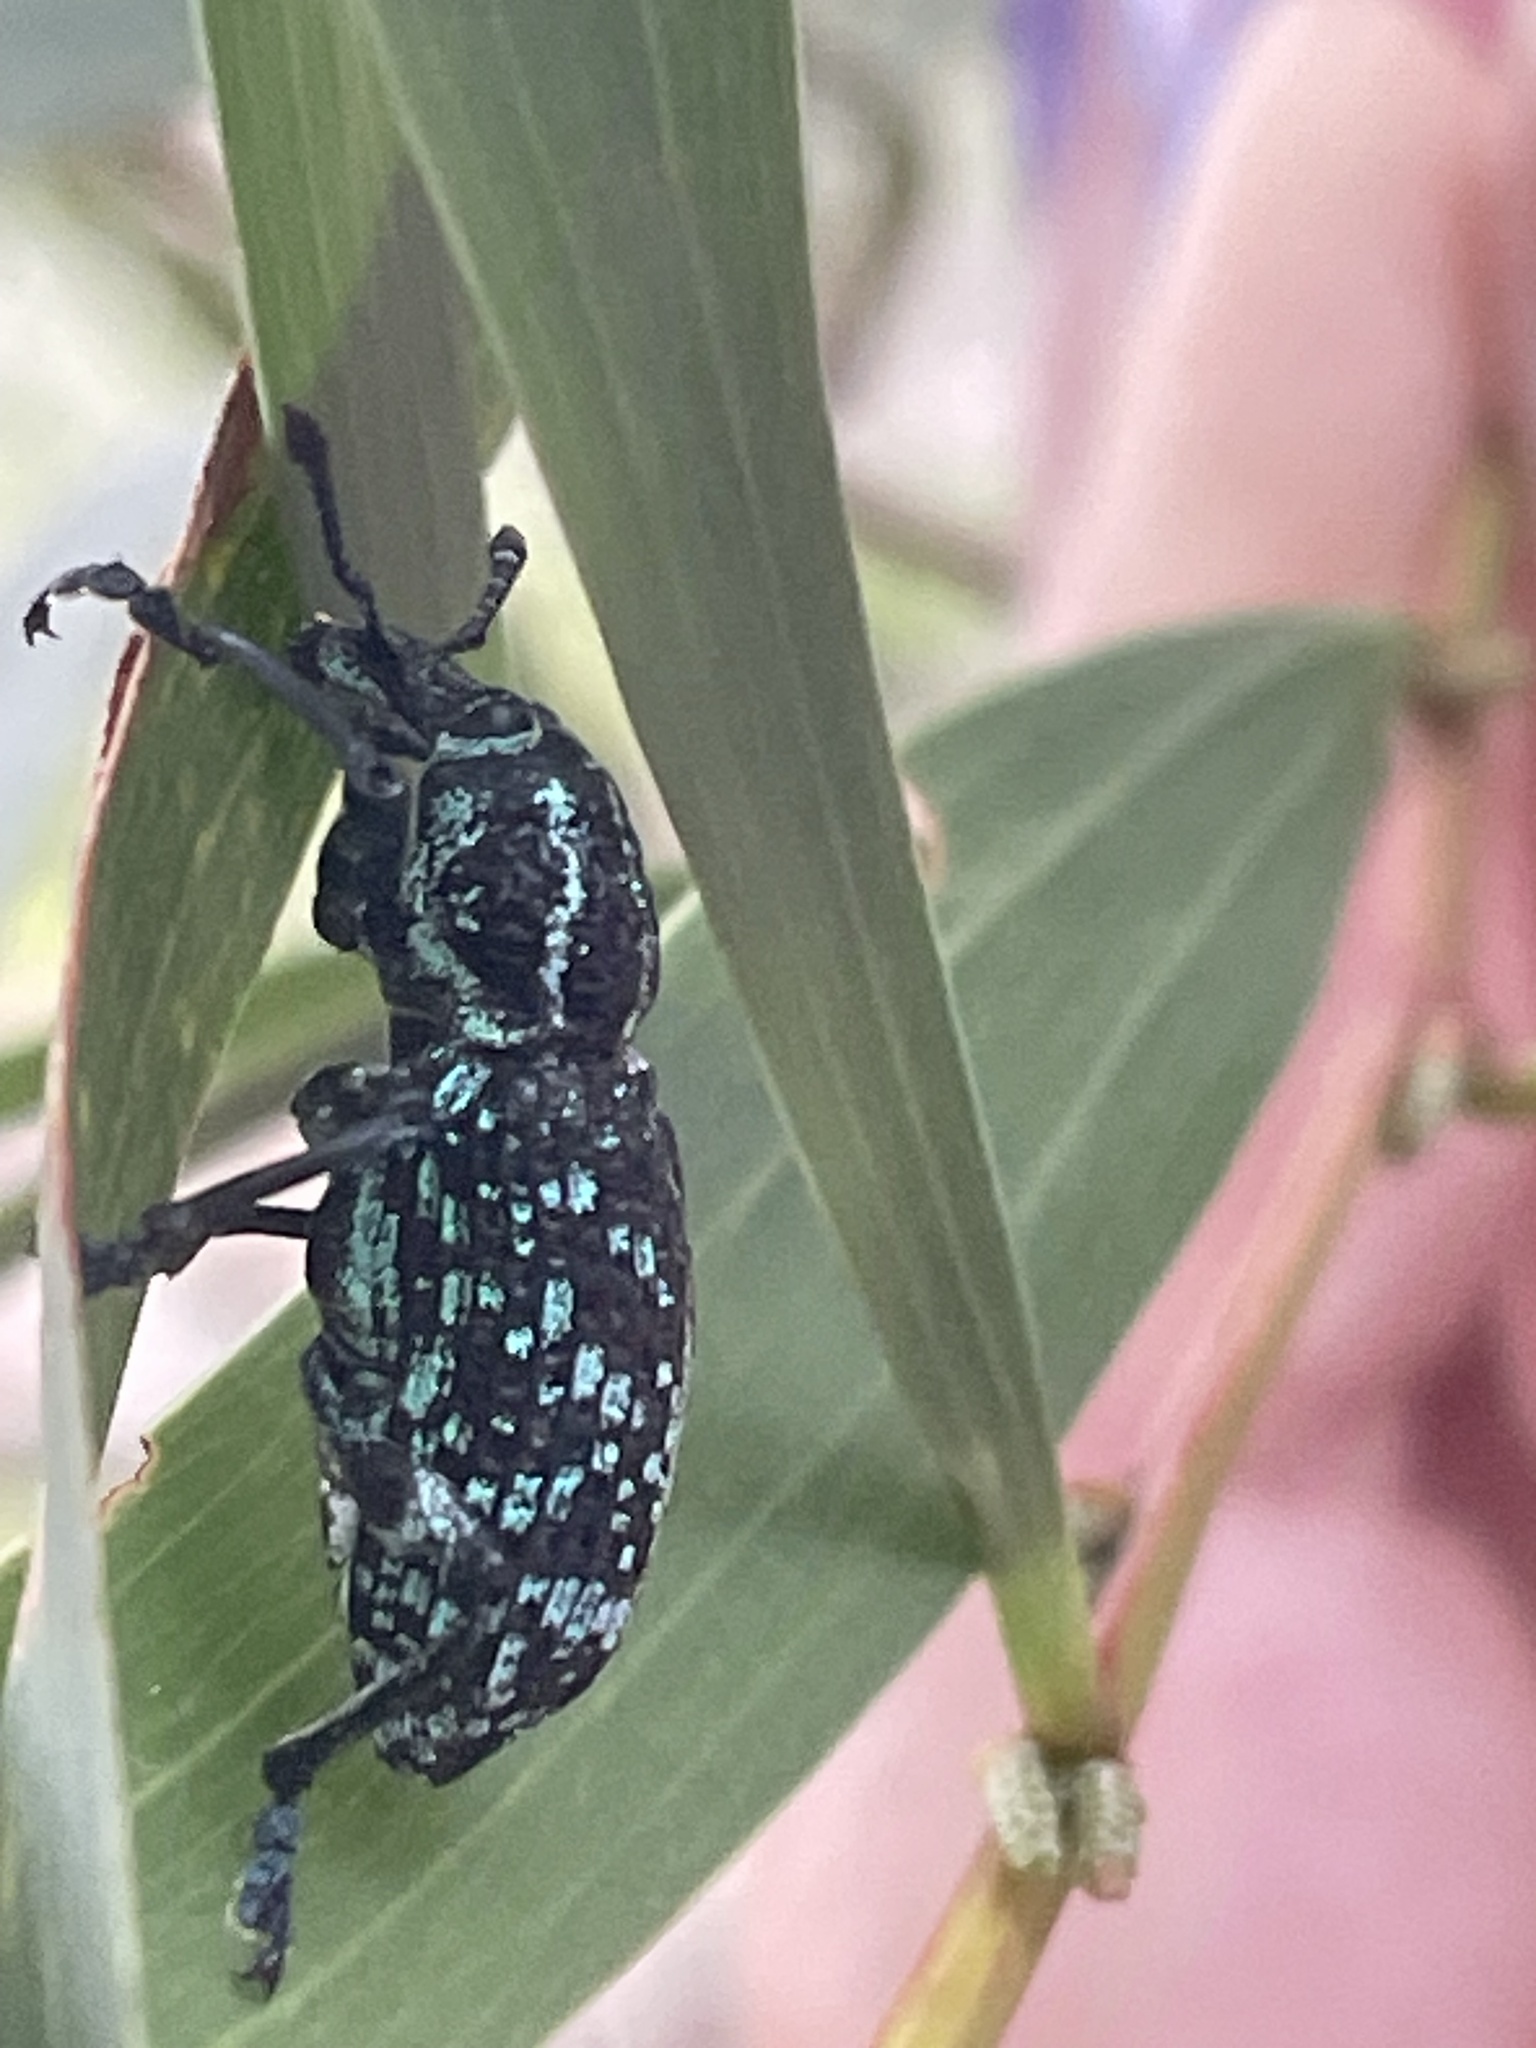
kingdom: Animalia
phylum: Arthropoda
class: Insecta
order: Coleoptera
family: Curculionidae
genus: Chrysolopus
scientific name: Chrysolopus spectabilis
